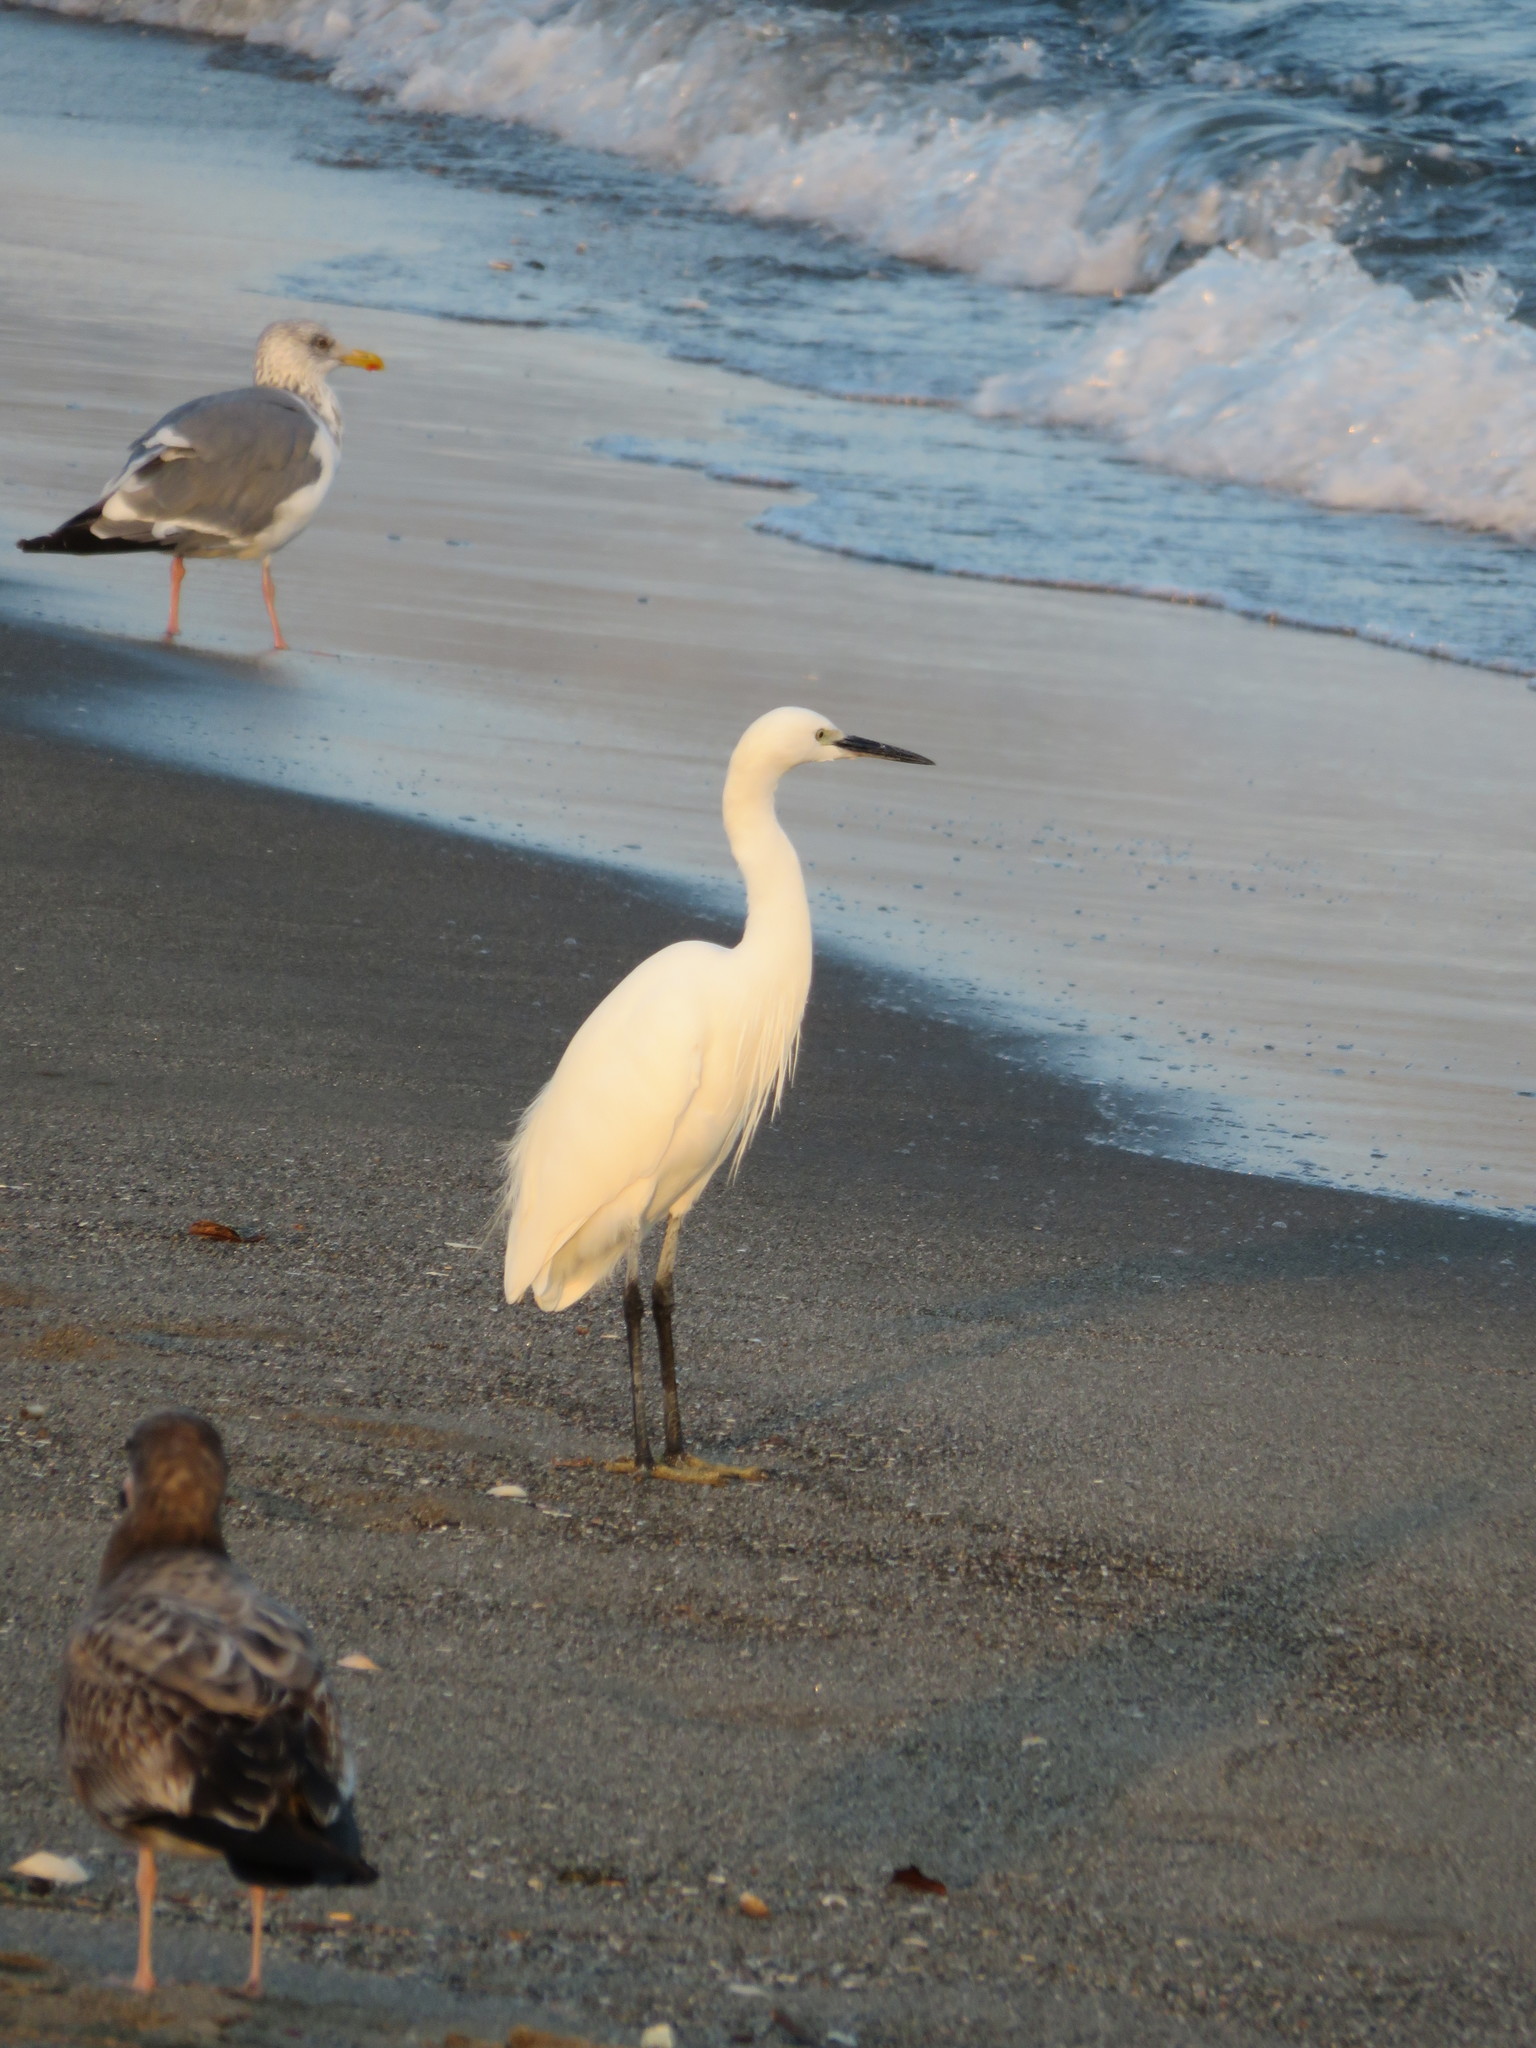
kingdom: Animalia
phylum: Chordata
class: Aves
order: Pelecaniformes
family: Ardeidae
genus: Egretta
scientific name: Egretta garzetta
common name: Little egret
